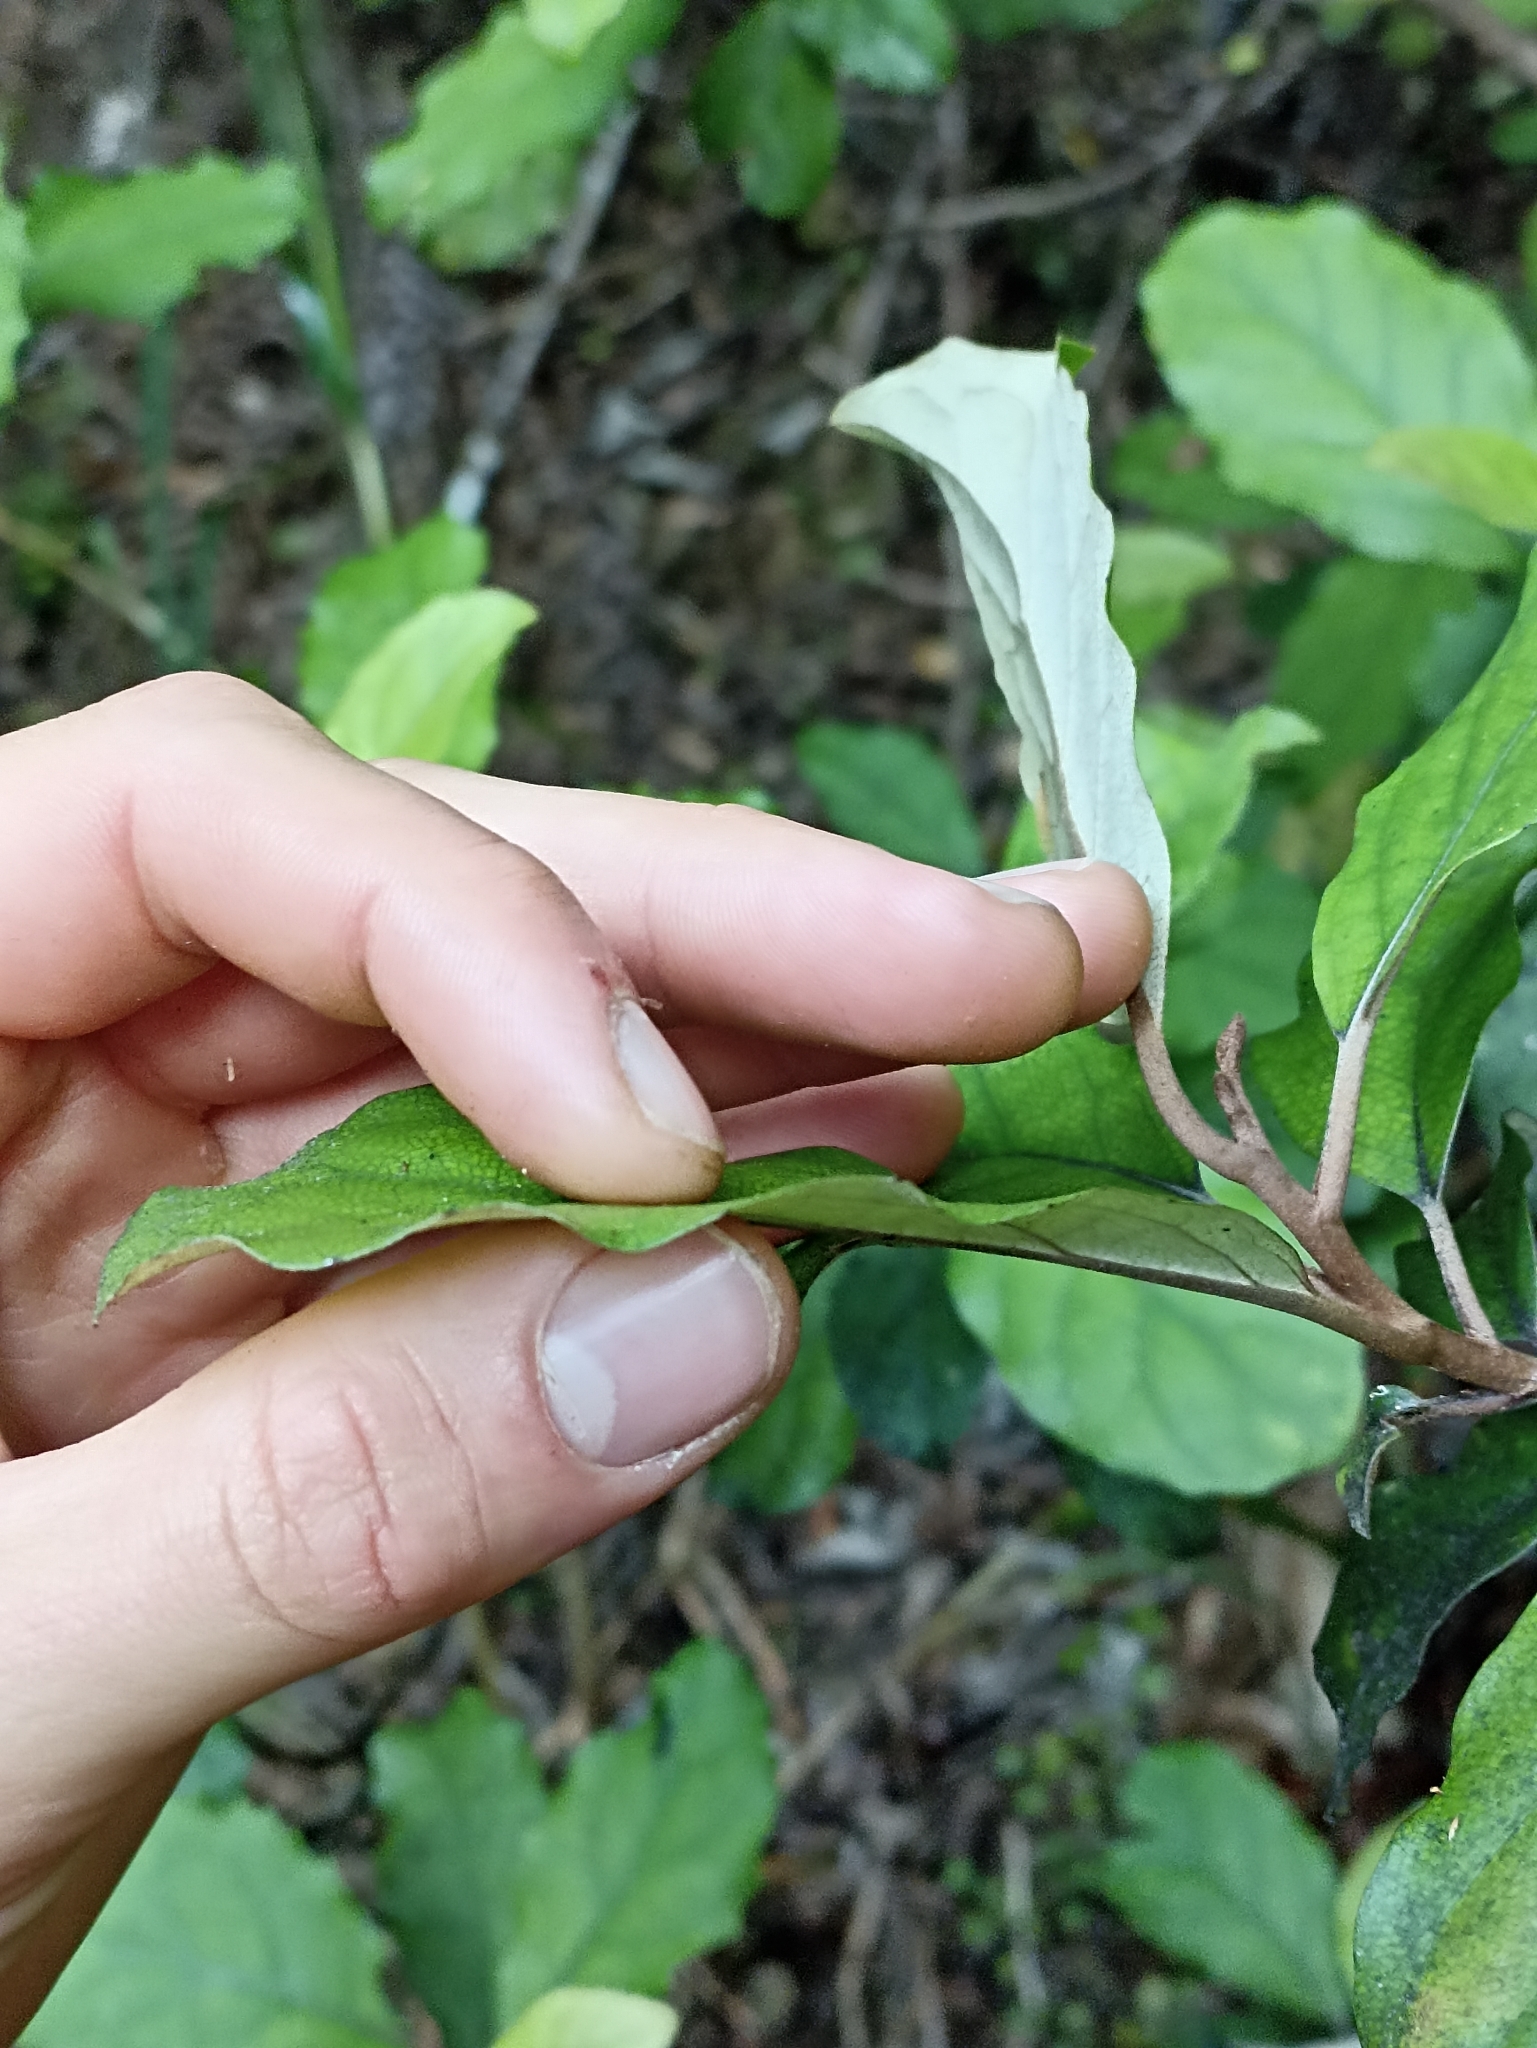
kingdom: Plantae
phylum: Tracheophyta
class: Magnoliopsida
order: Asterales
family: Asteraceae
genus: Olearia
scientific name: Olearia rani
